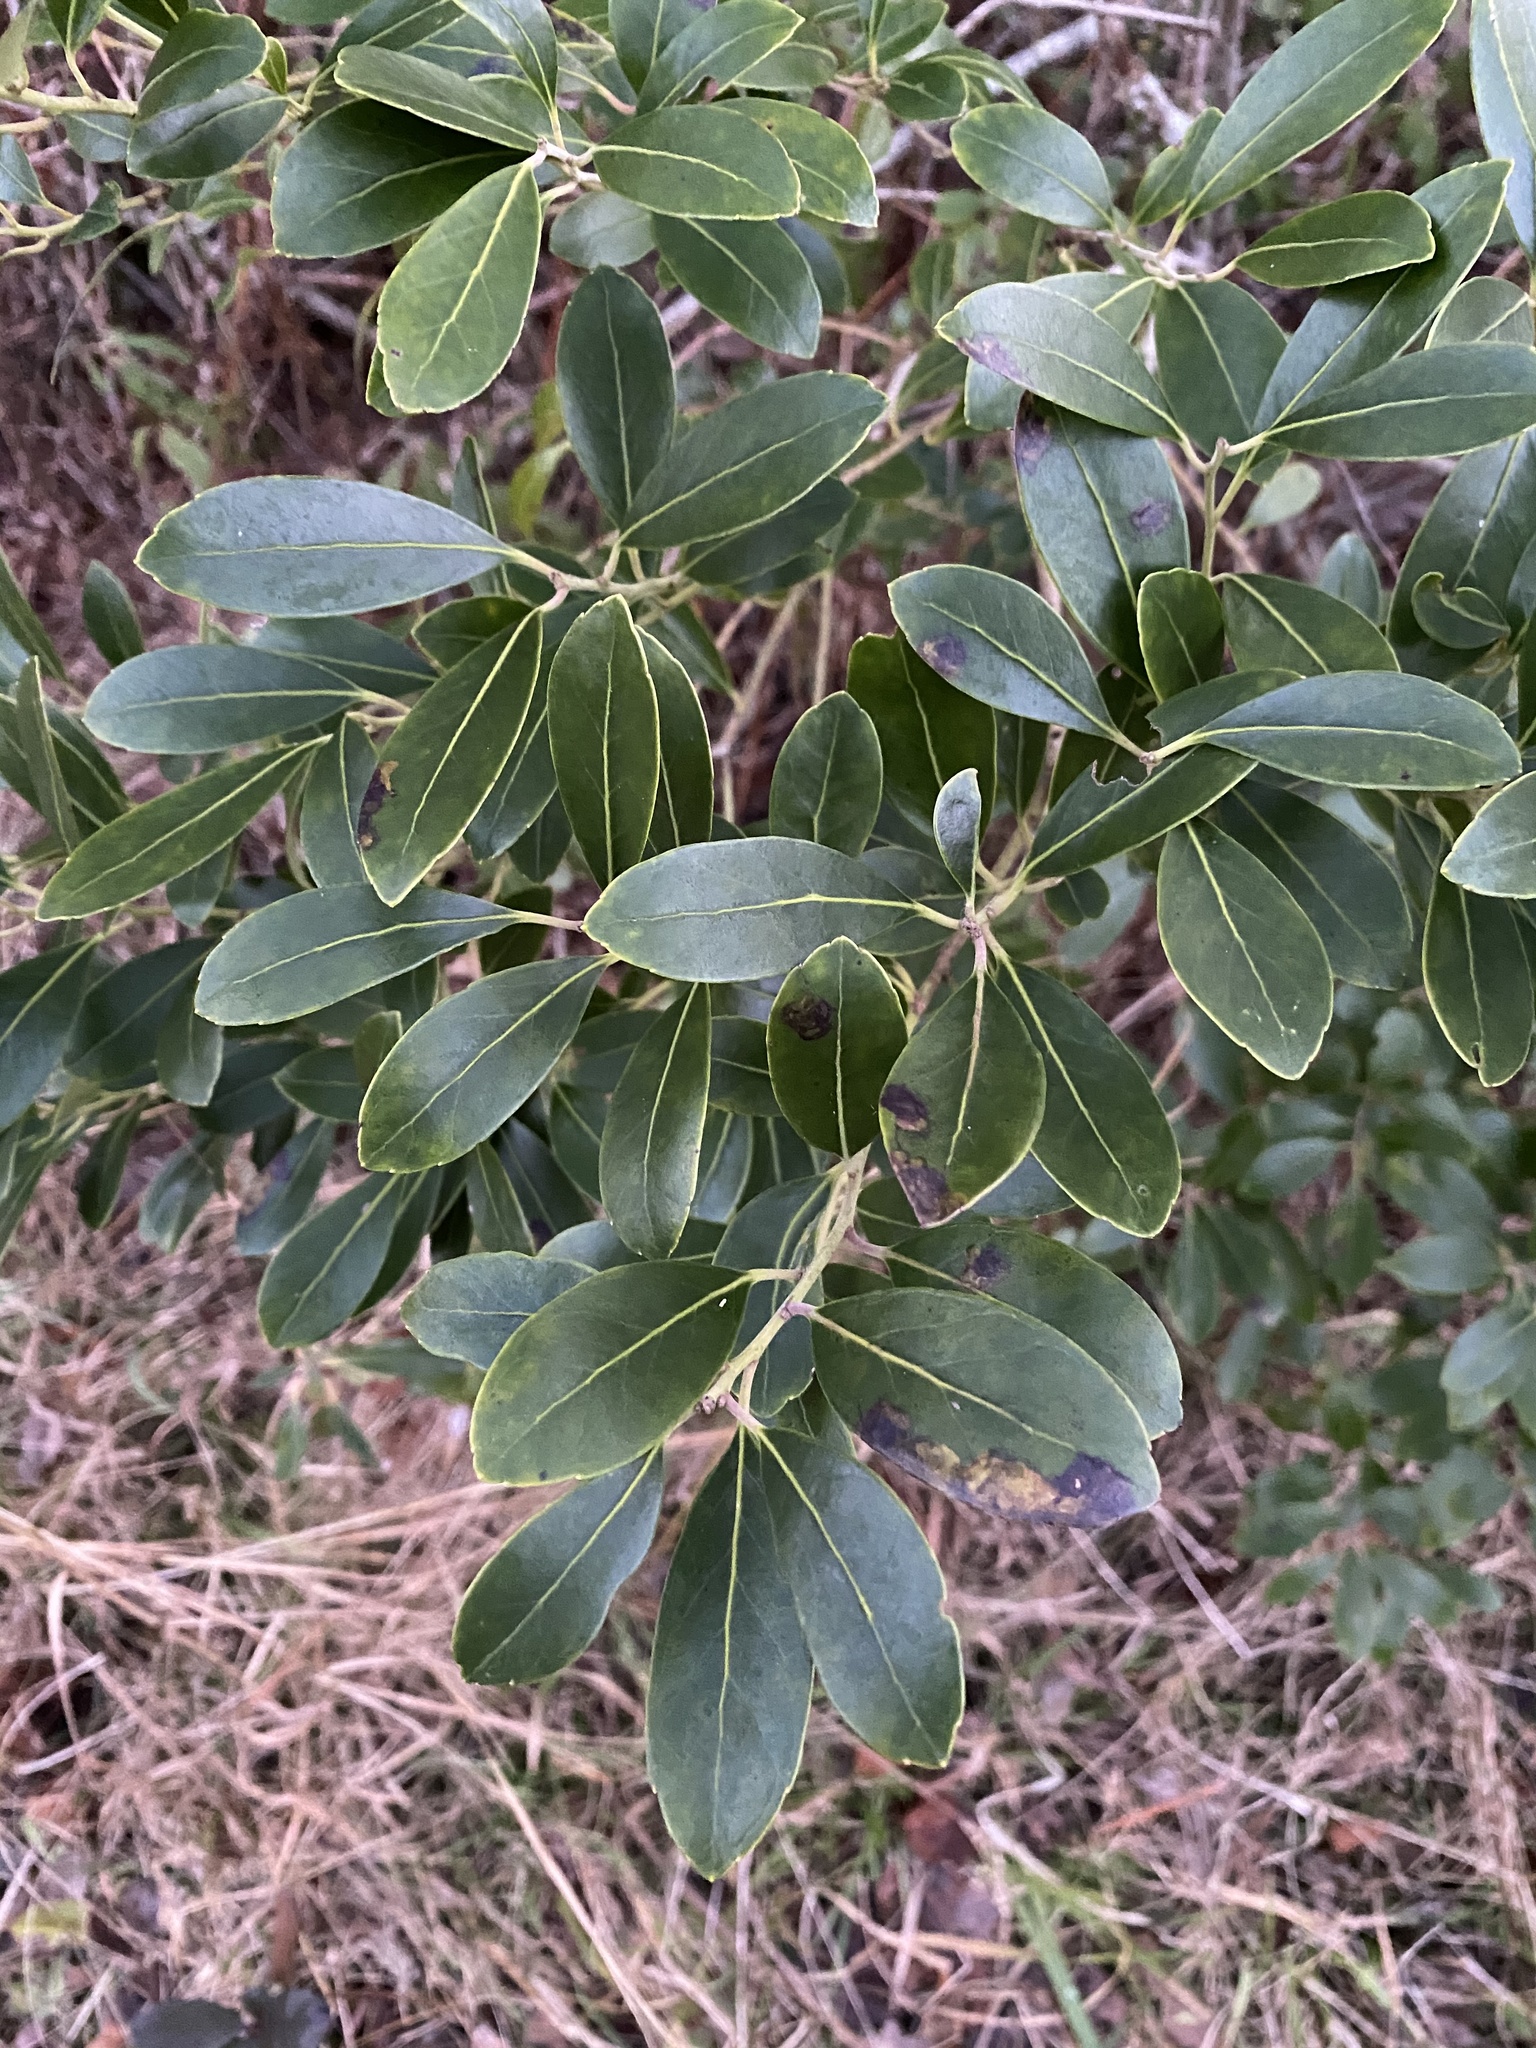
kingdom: Plantae
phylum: Tracheophyta
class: Magnoliopsida
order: Aquifoliales
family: Aquifoliaceae
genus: Ilex
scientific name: Ilex glabra
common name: Bitter gallberry
